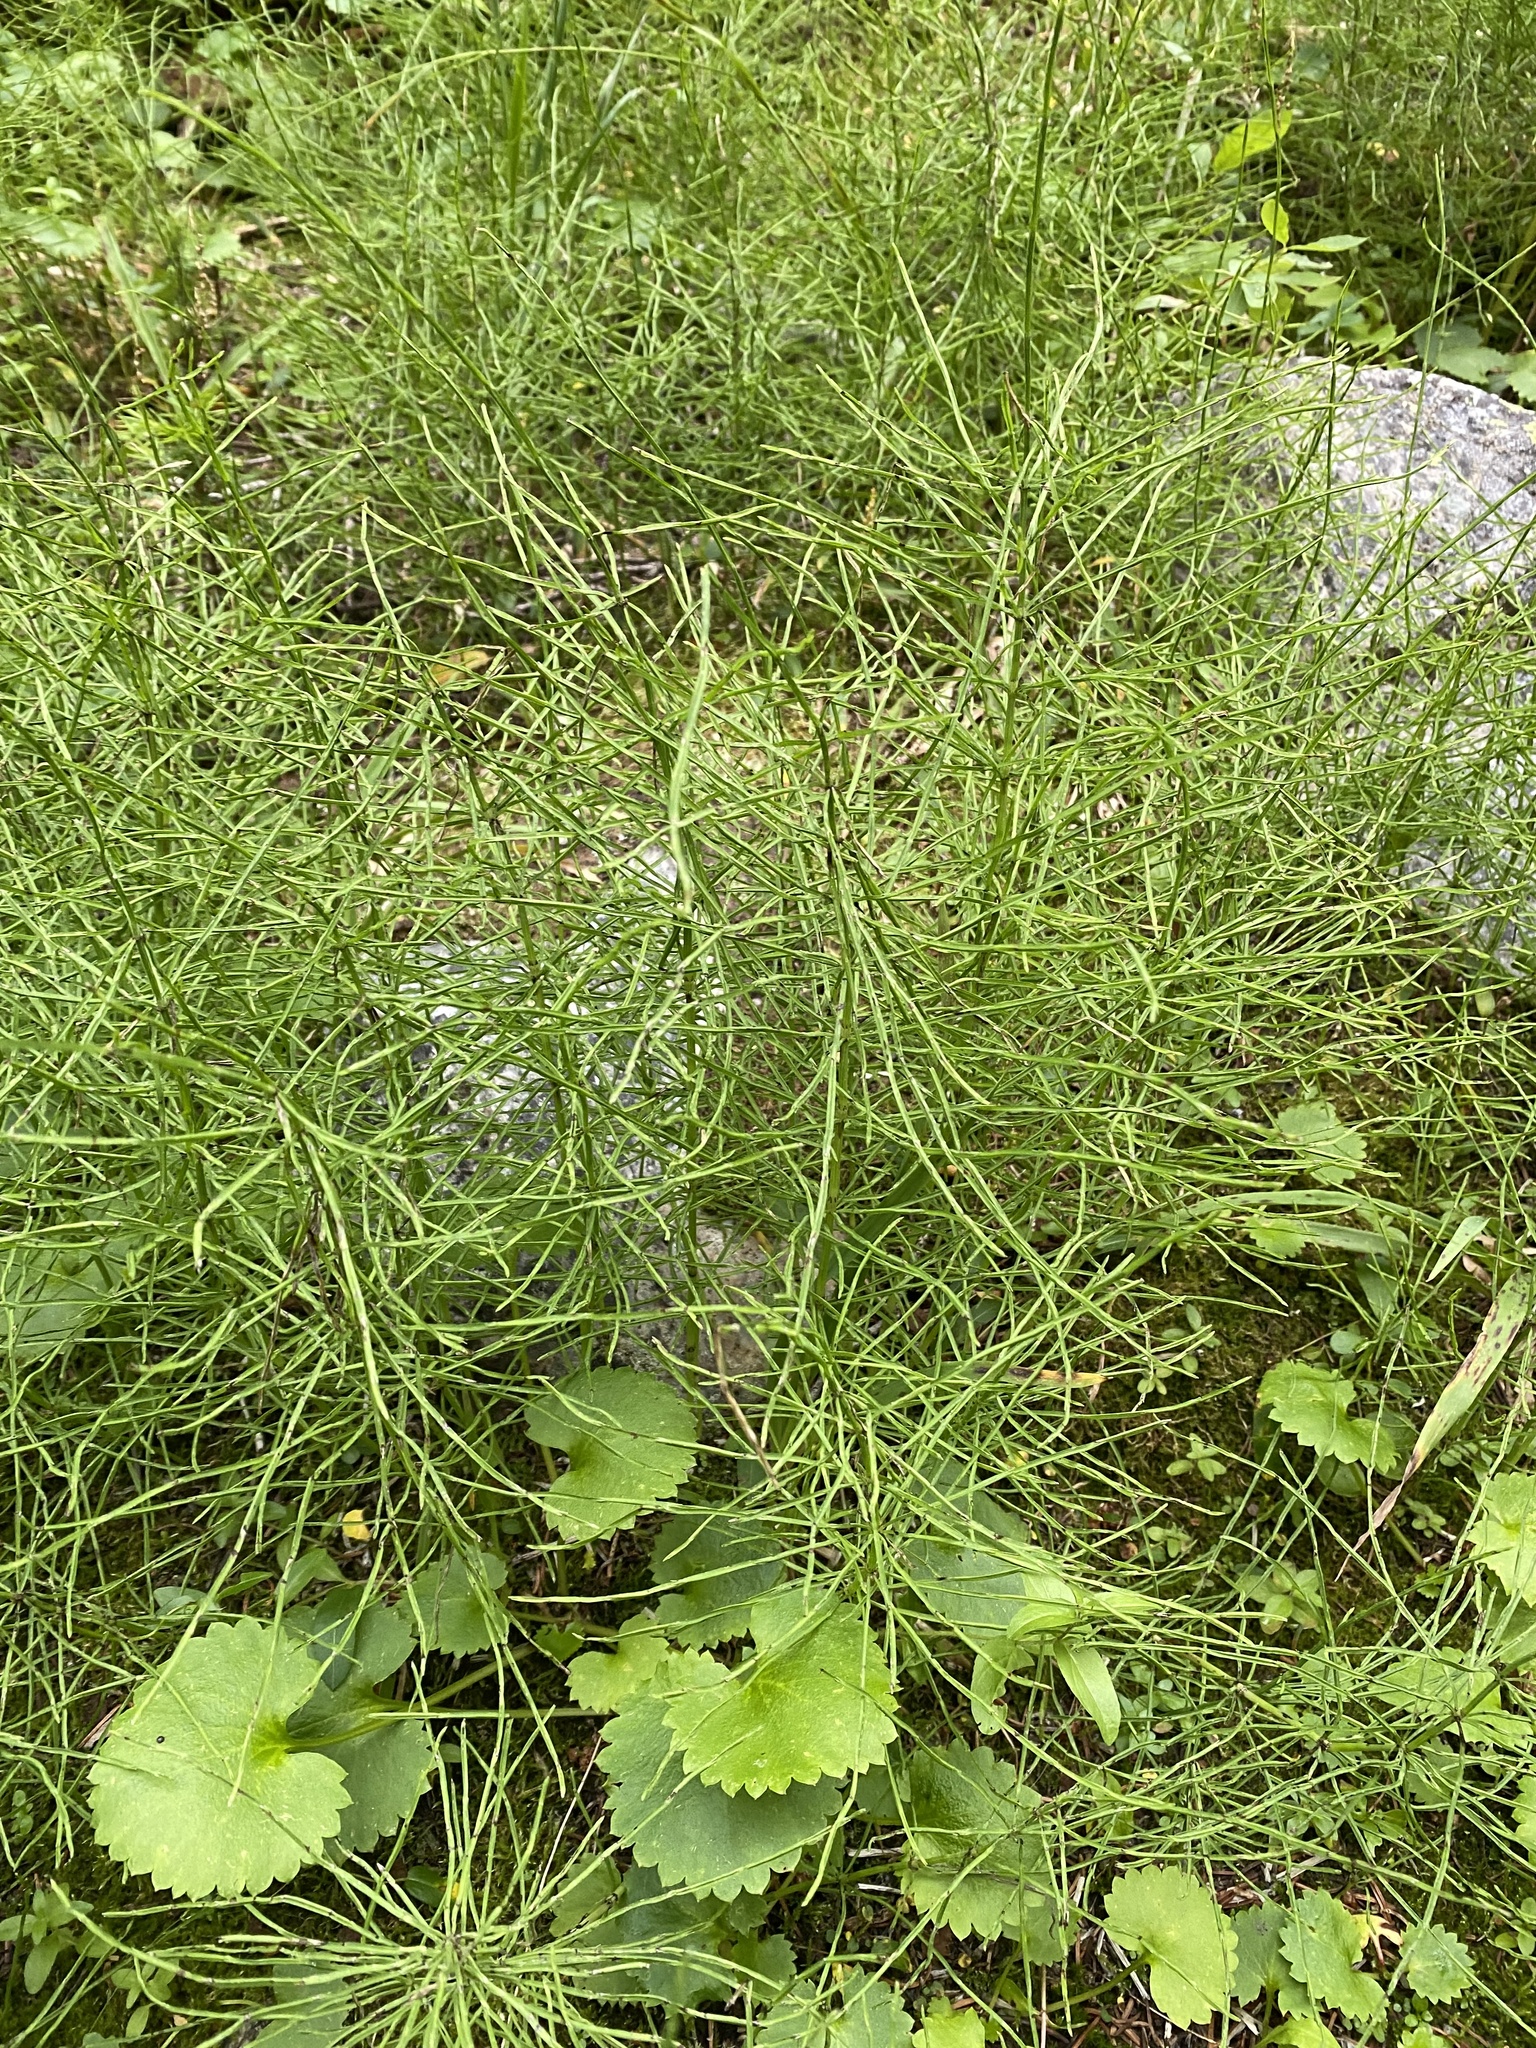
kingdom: Plantae
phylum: Tracheophyta
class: Polypodiopsida
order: Equisetales
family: Equisetaceae
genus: Equisetum
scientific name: Equisetum arvense
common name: Field horsetail
